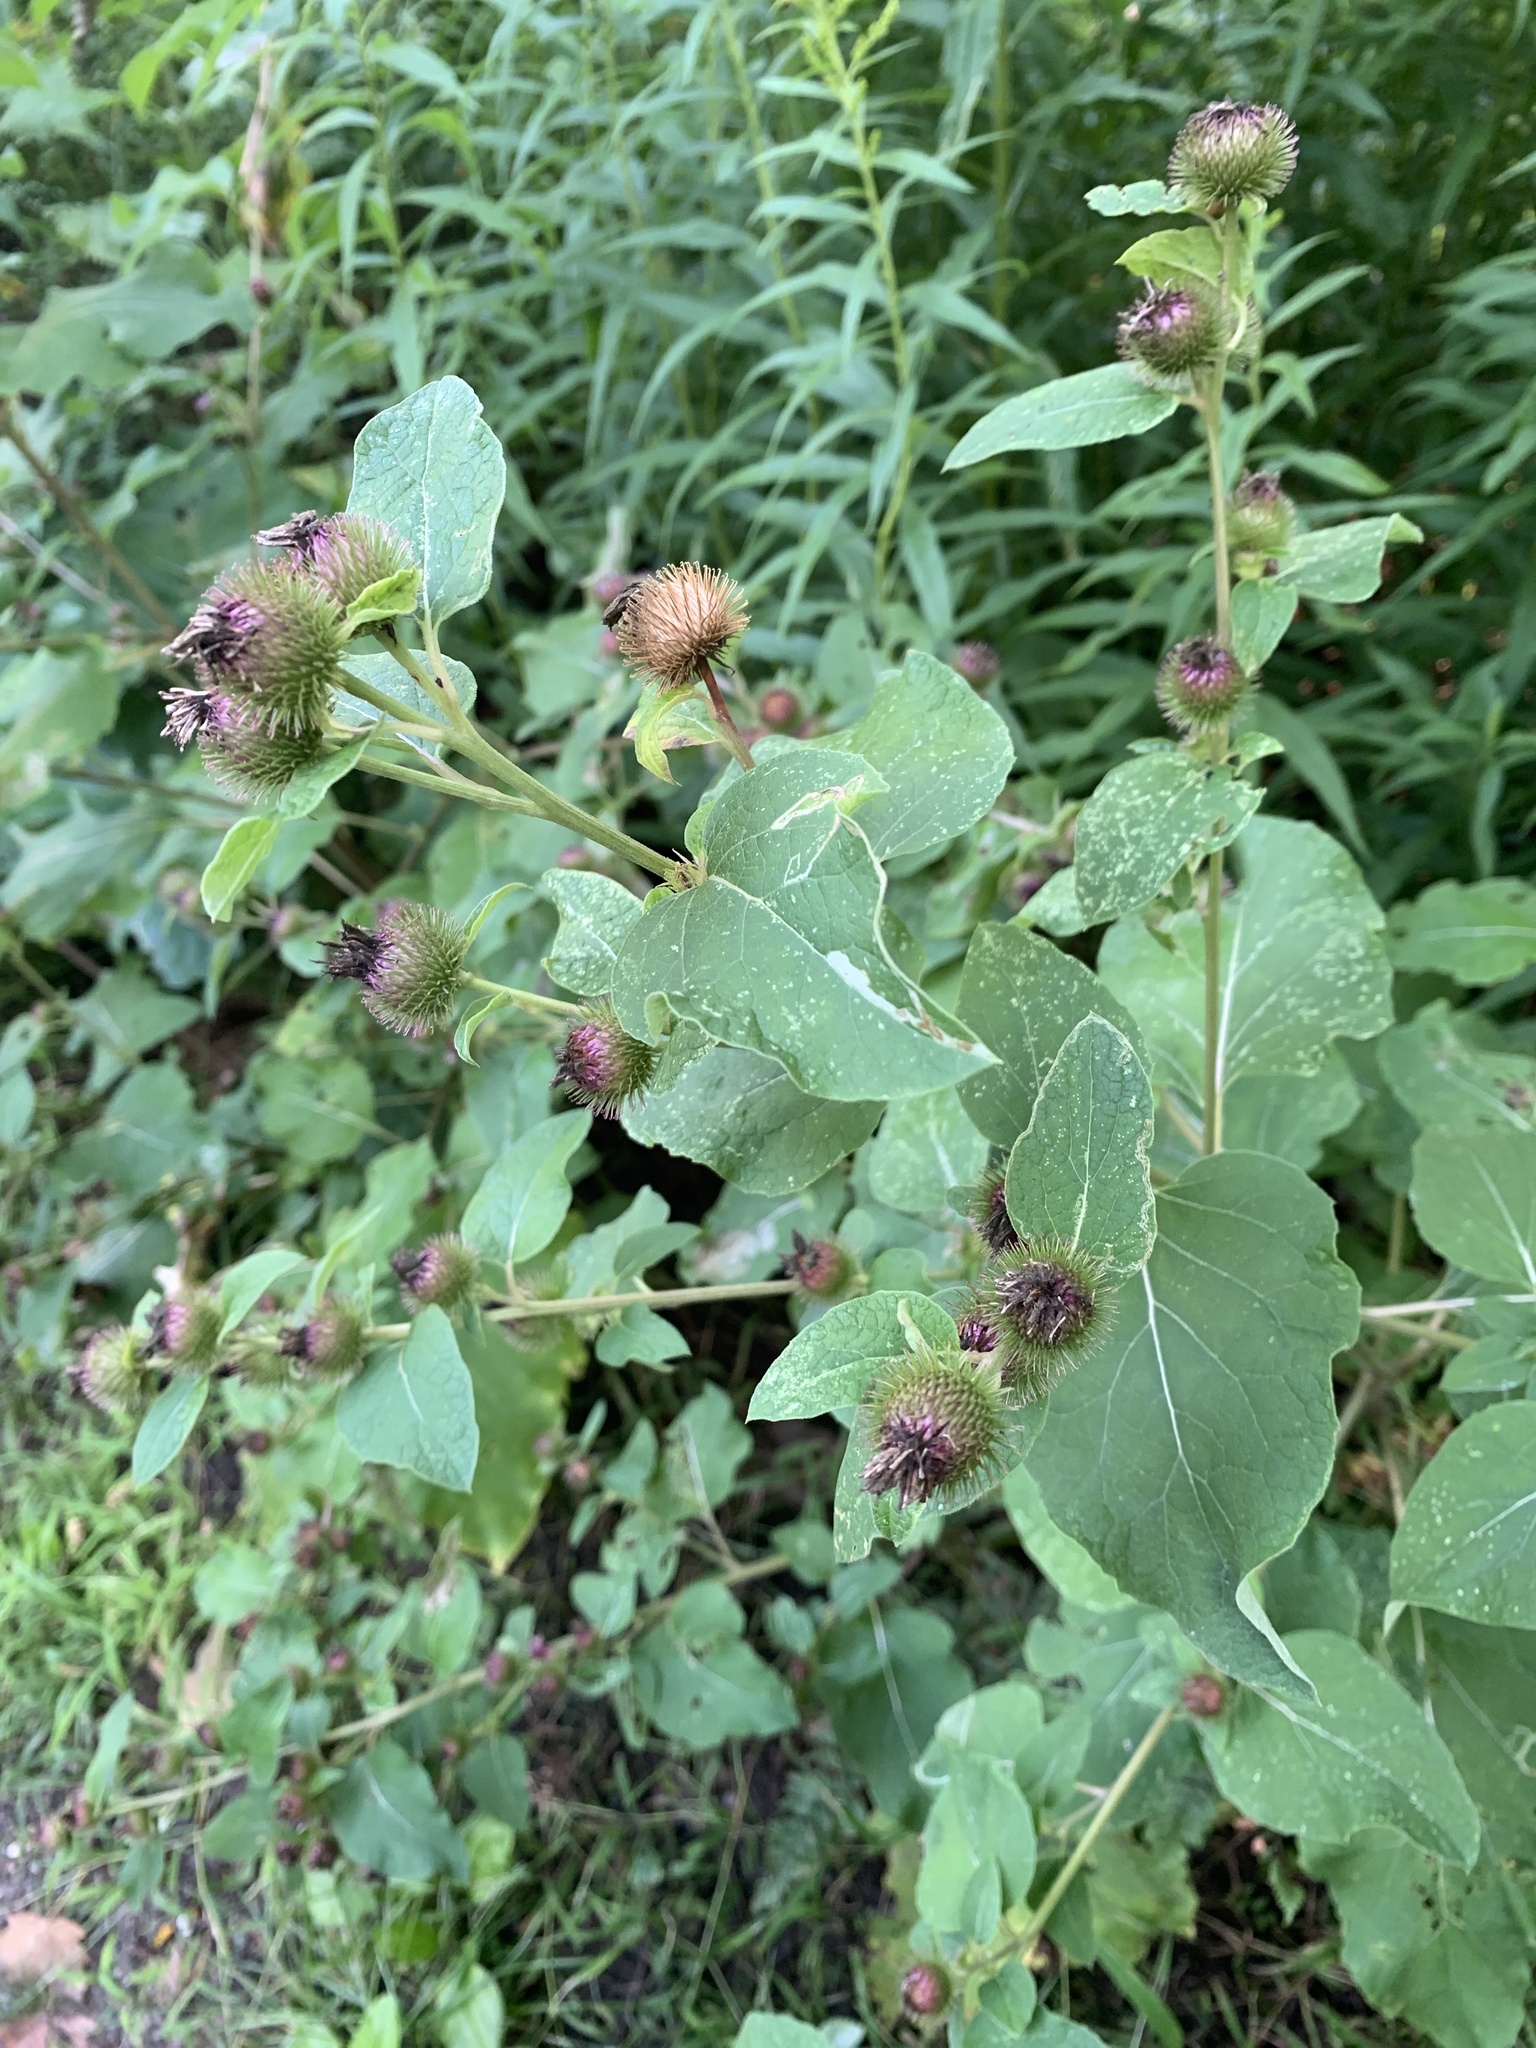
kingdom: Plantae
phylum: Tracheophyta
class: Magnoliopsida
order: Asterales
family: Asteraceae
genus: Arctium
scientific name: Arctium minus
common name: Lesser burdock
